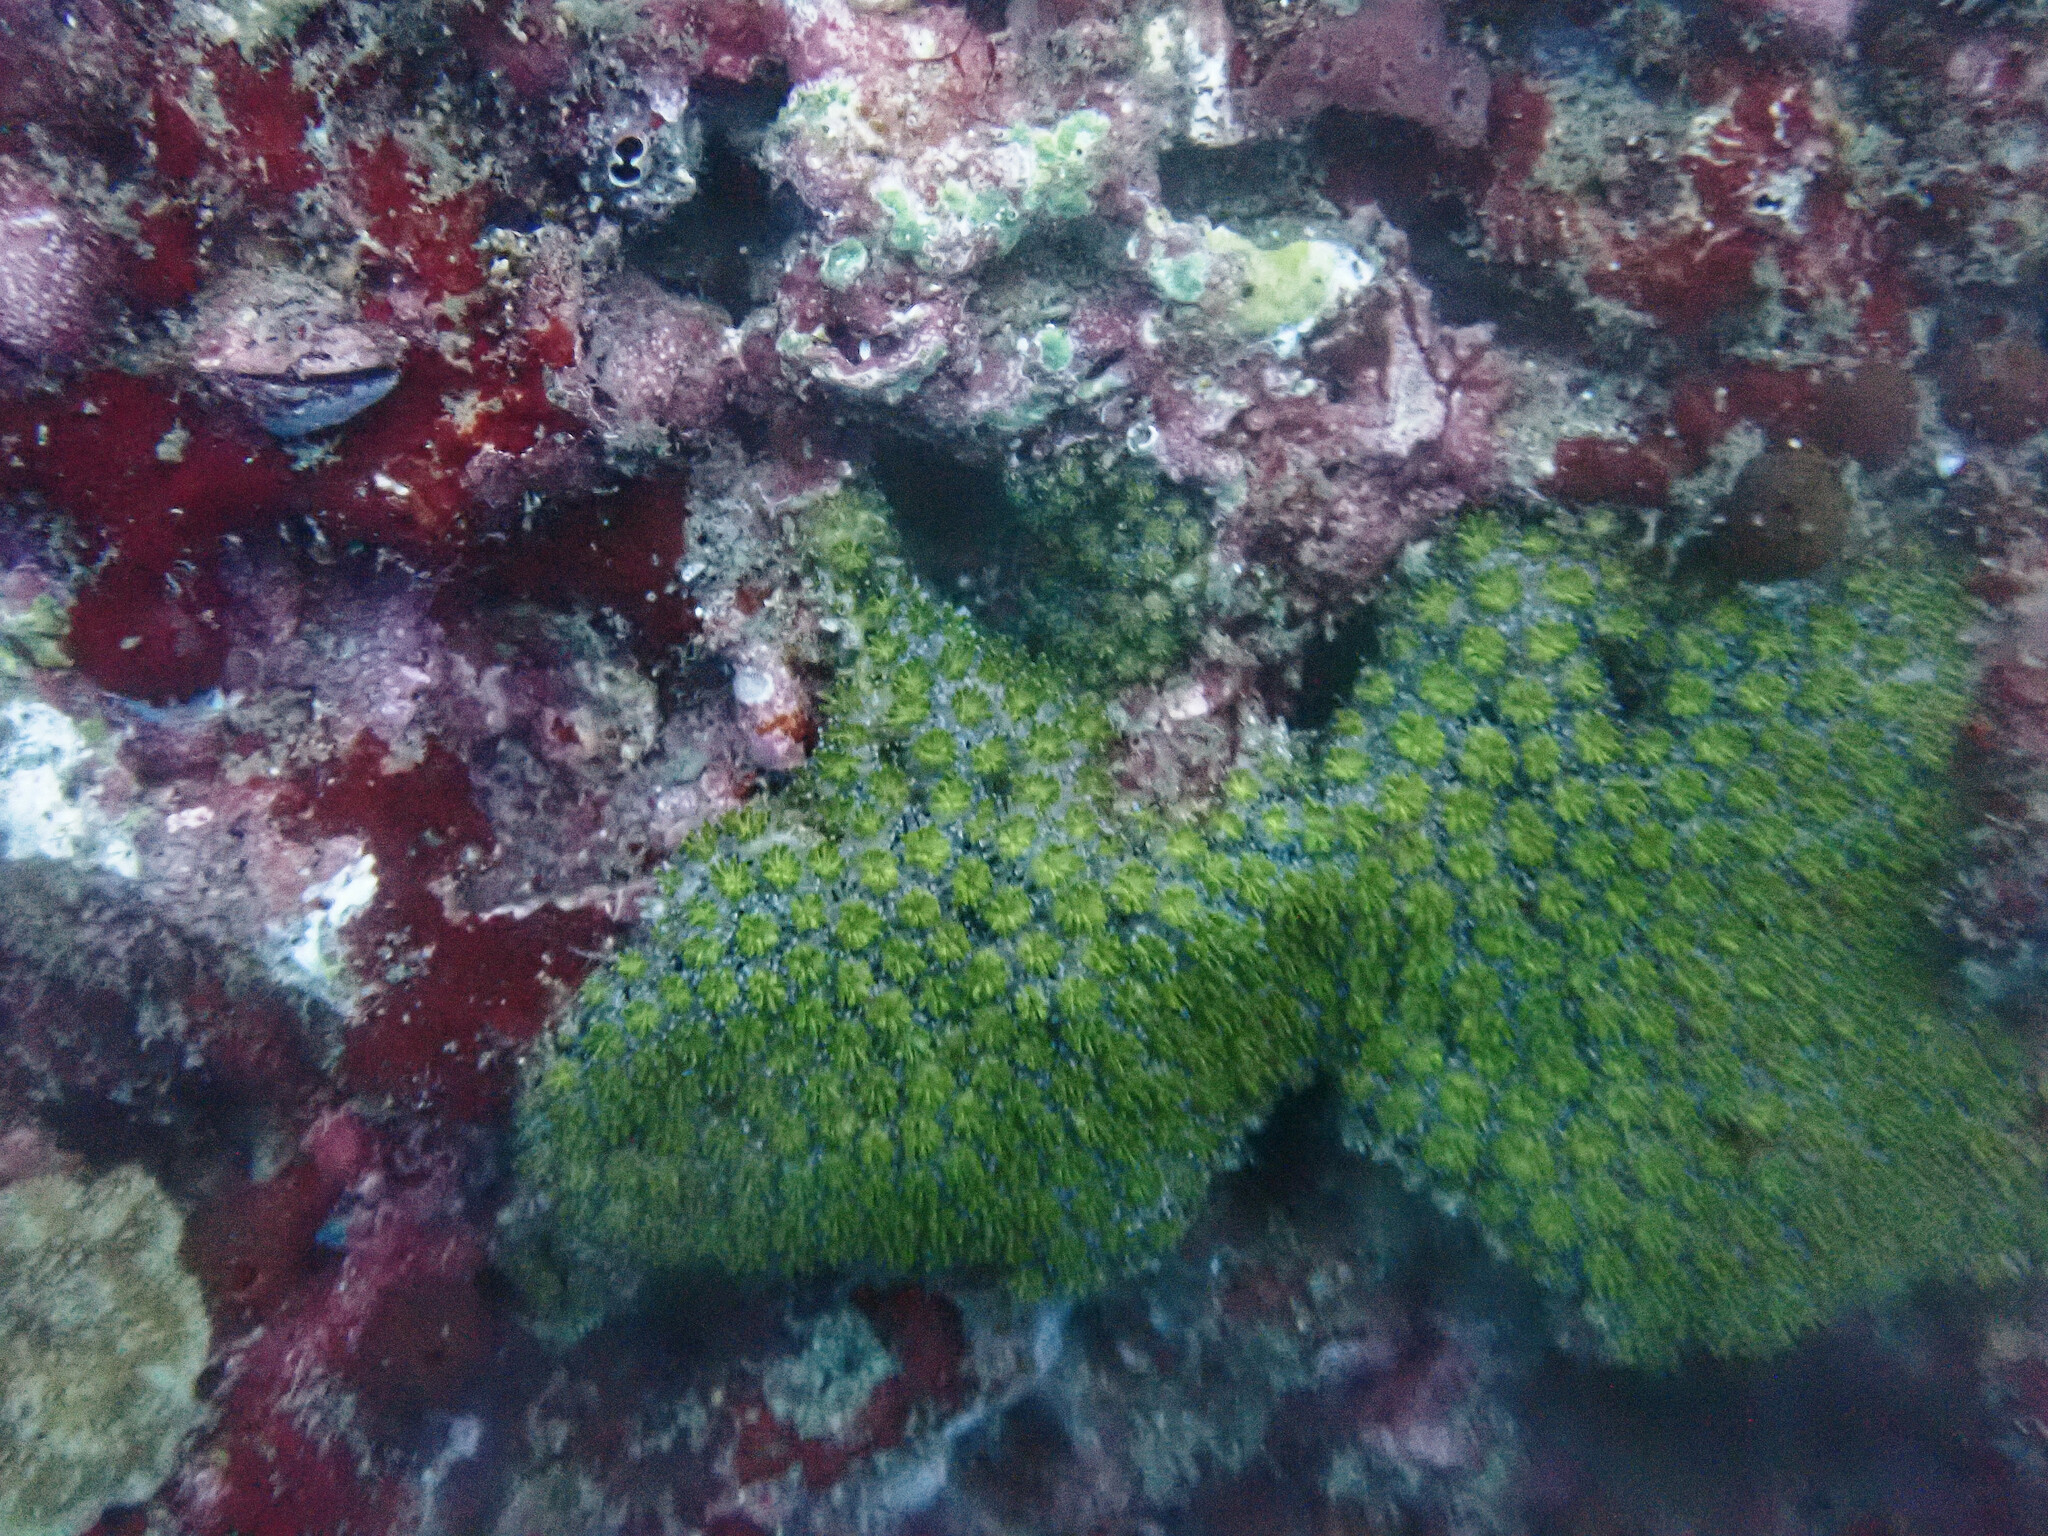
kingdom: Animalia
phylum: Cnidaria
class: Anthozoa
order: Scleractinia
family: Euphylliidae
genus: Galaxea
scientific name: Galaxea fascicularis
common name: Octopus coral
